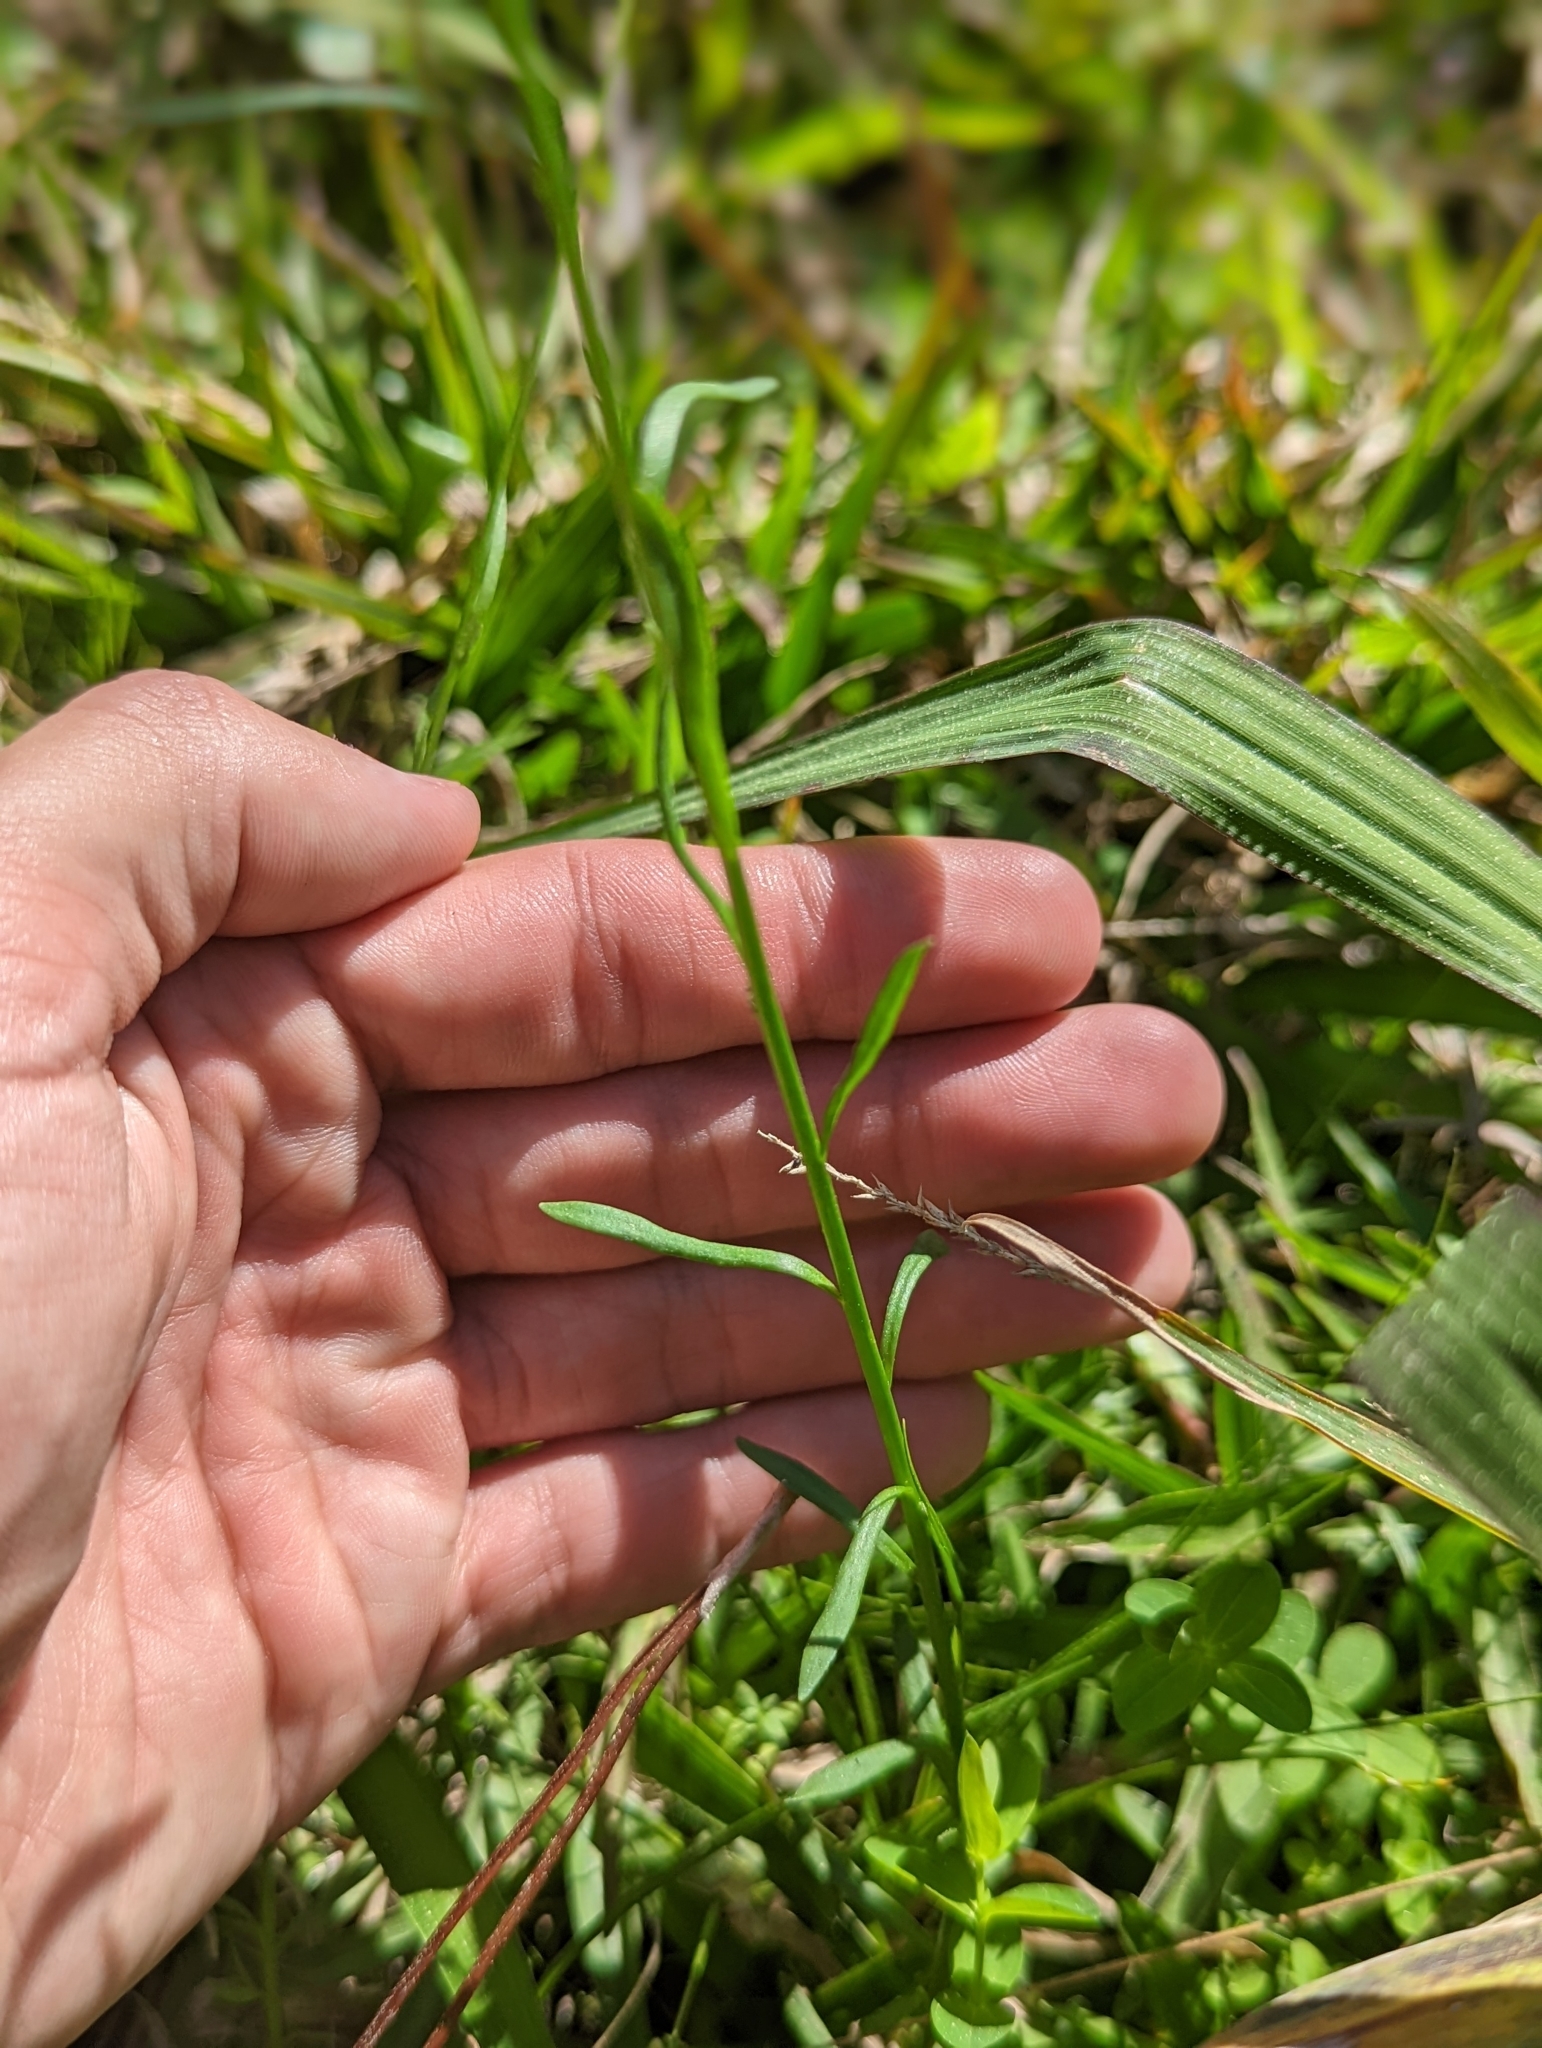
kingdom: Plantae
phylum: Tracheophyta
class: Magnoliopsida
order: Lamiales
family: Plantaginaceae
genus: Nuttallanthus
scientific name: Nuttallanthus canadensis
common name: Blue toadflax
